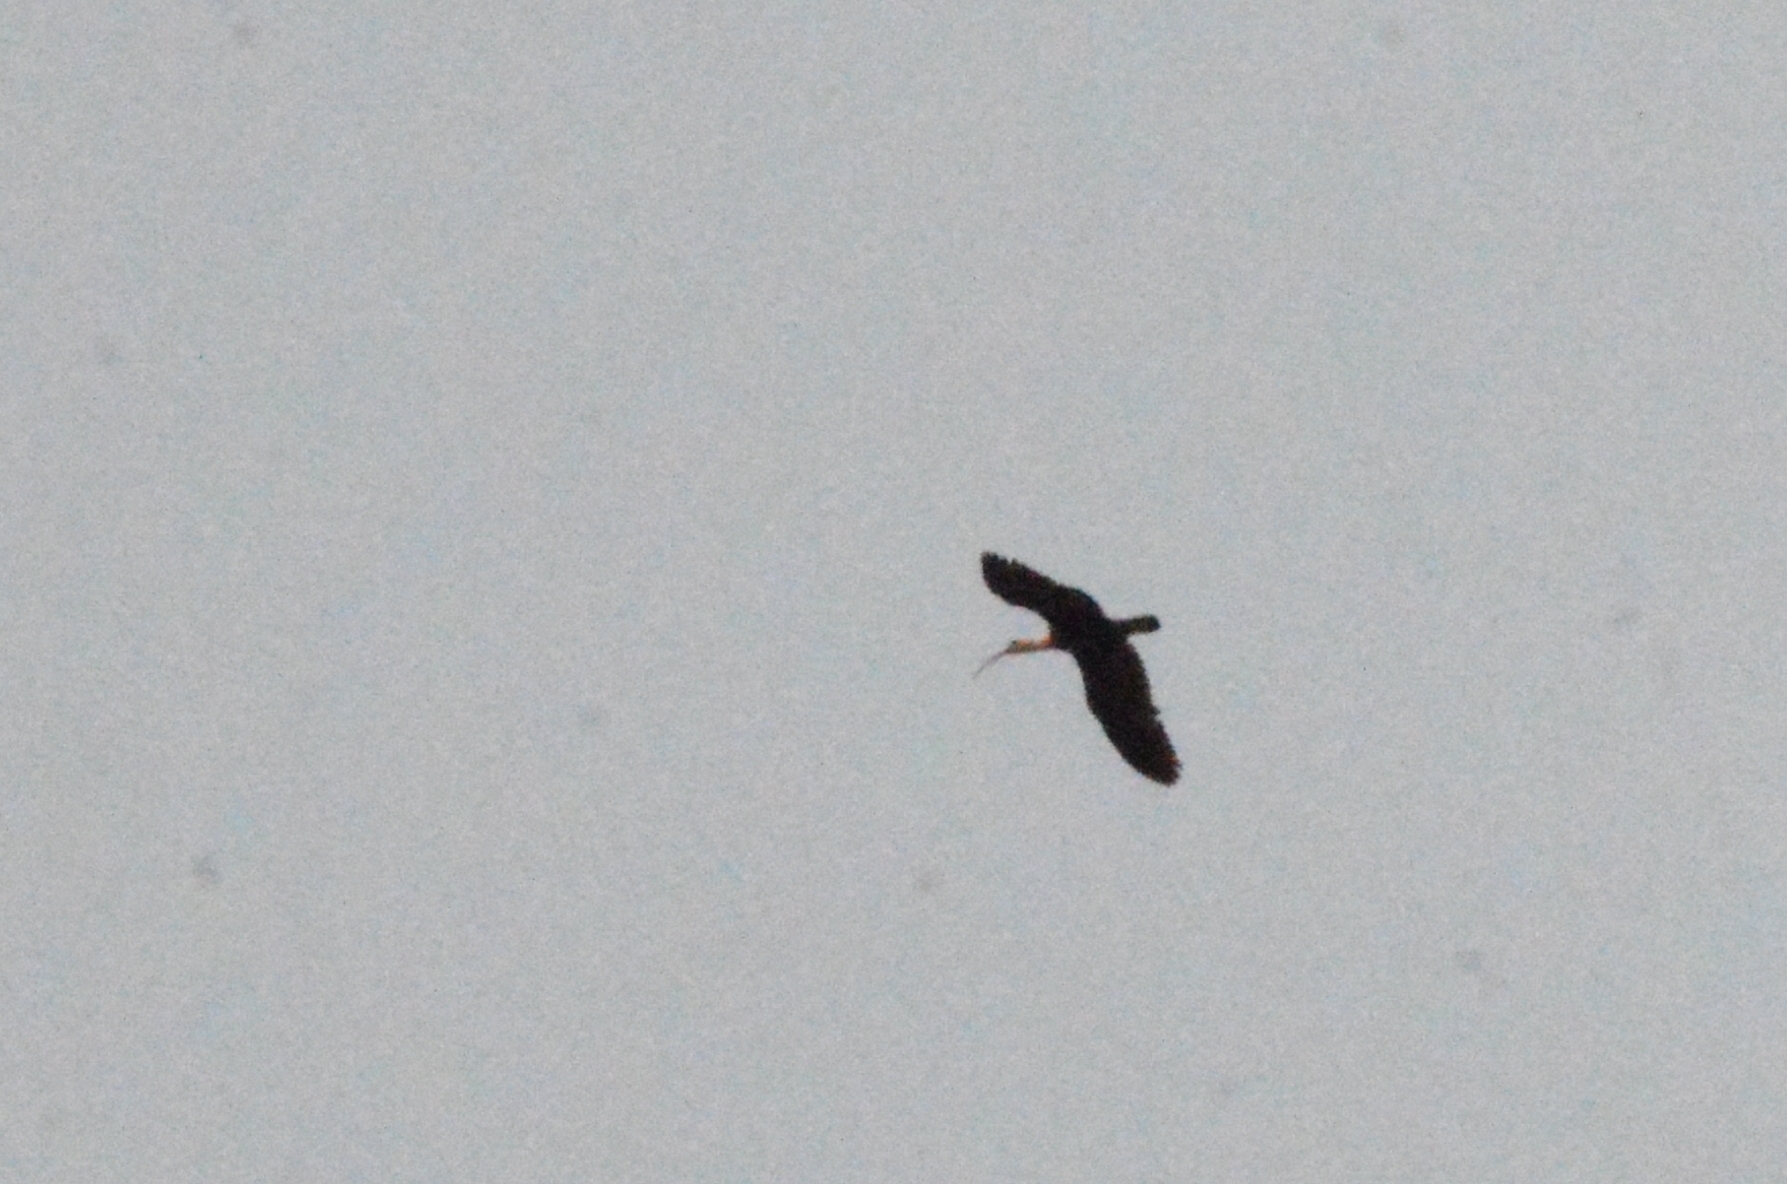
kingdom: Animalia
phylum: Chordata
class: Aves
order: Pelecaniformes
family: Threskiornithidae
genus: Theristicus
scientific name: Theristicus caudatus
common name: Buff-necked ibis
